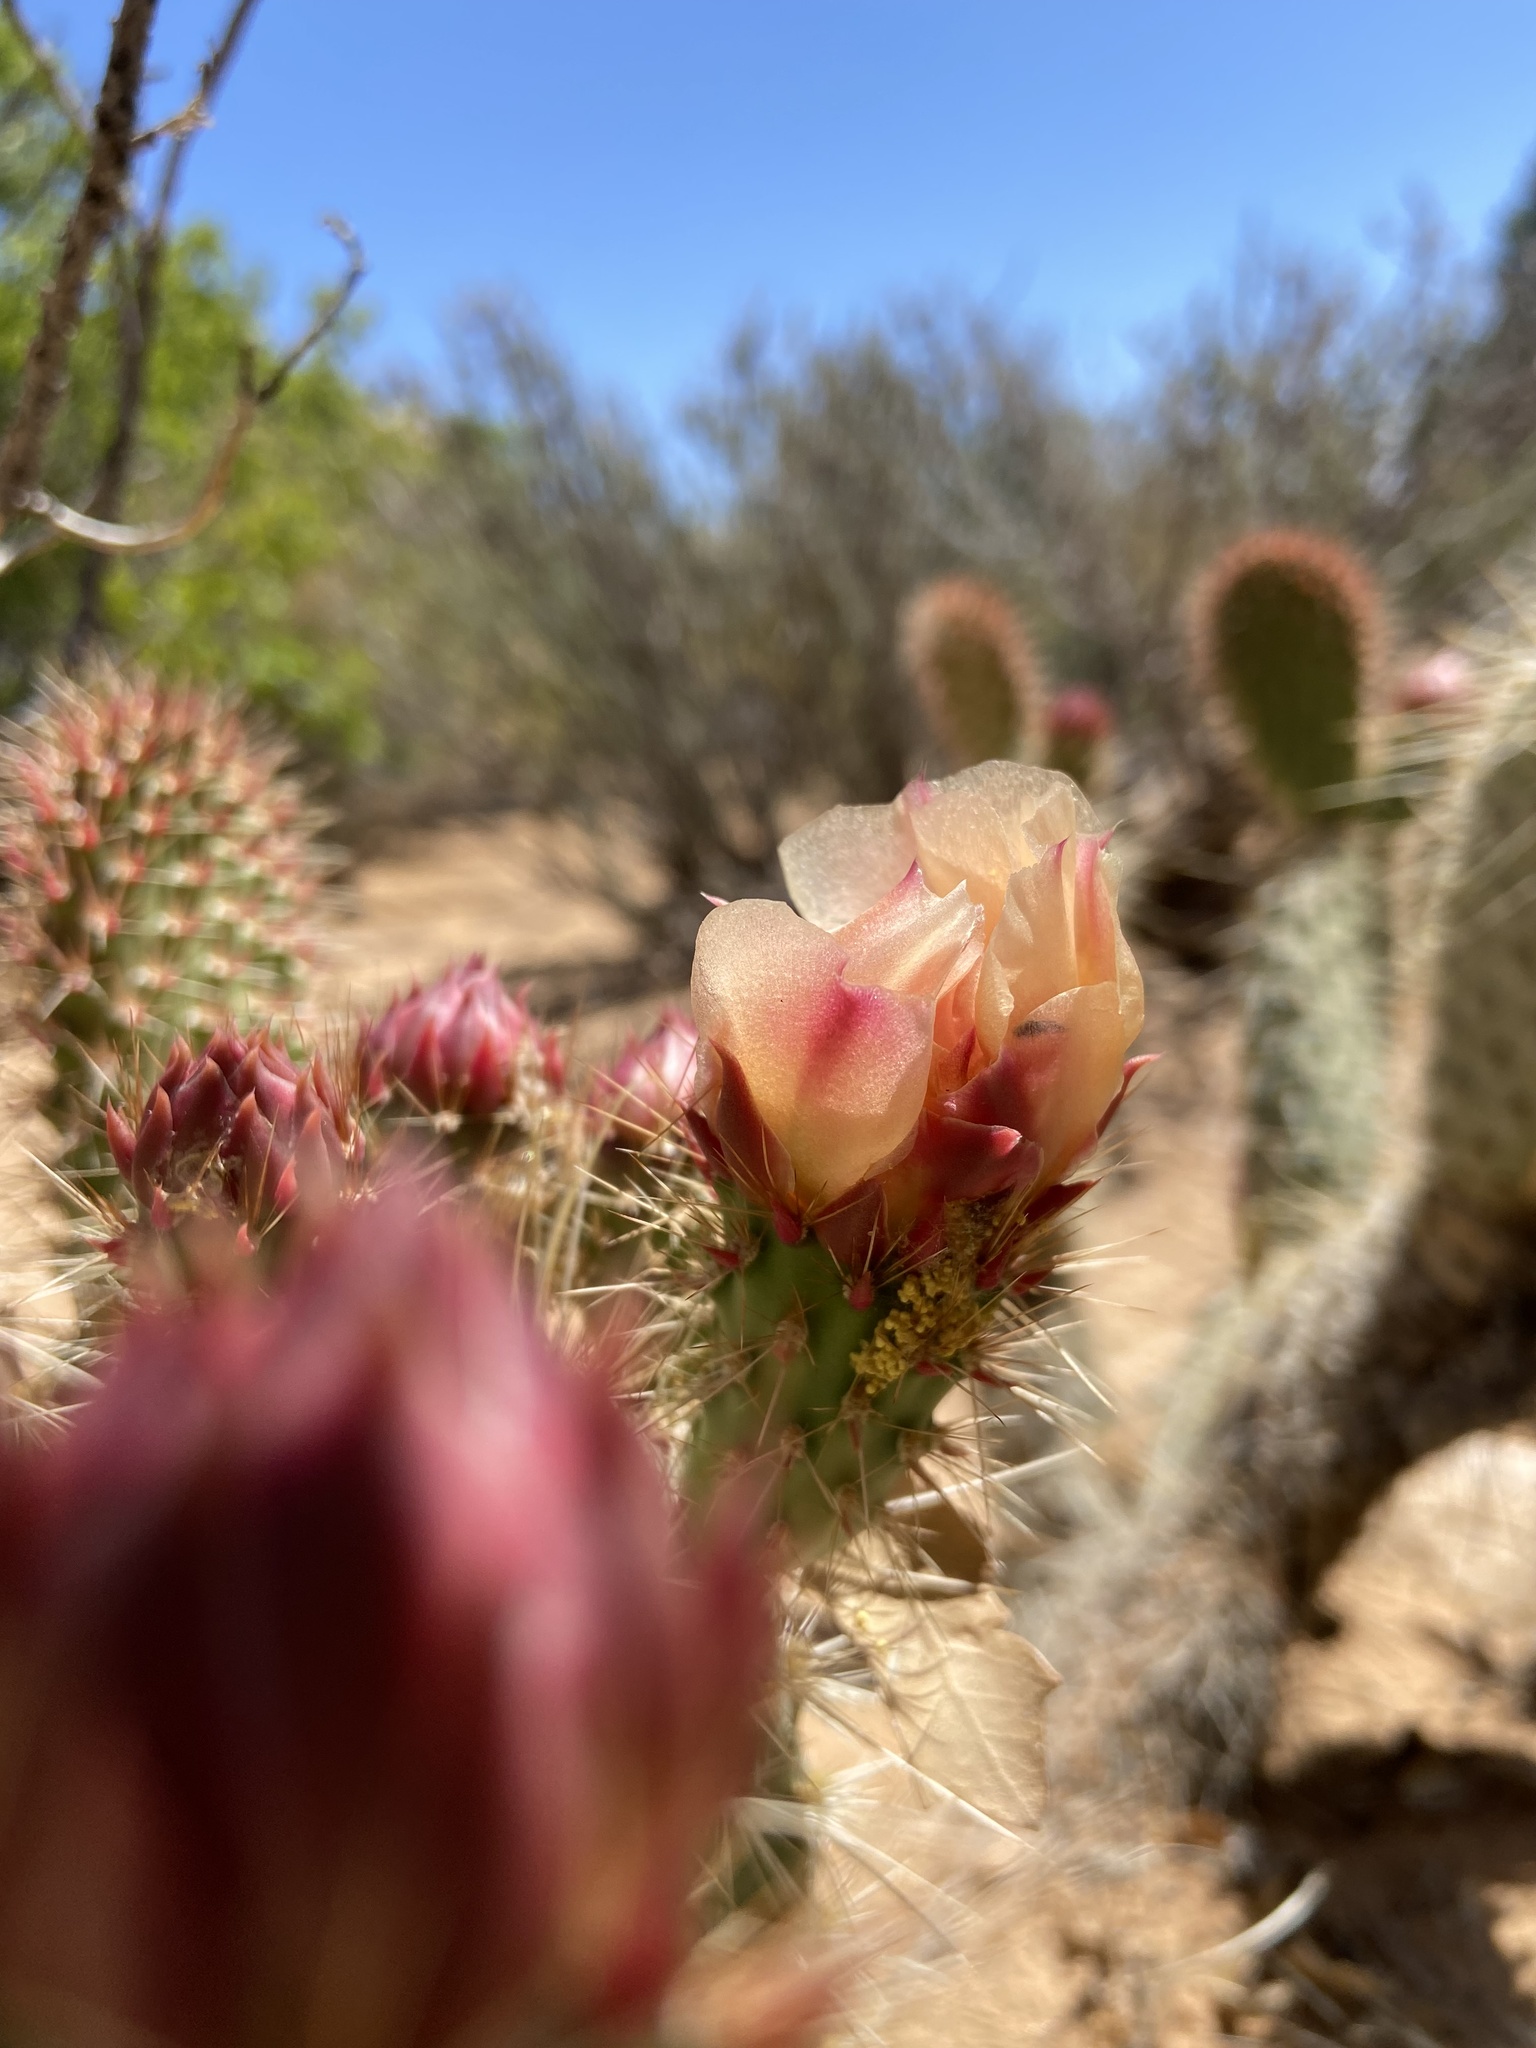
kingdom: Plantae
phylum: Tracheophyta
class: Magnoliopsida
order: Caryophyllales
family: Cactaceae
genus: Opuntia
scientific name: Opuntia polyacantha
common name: Plains prickly-pear
